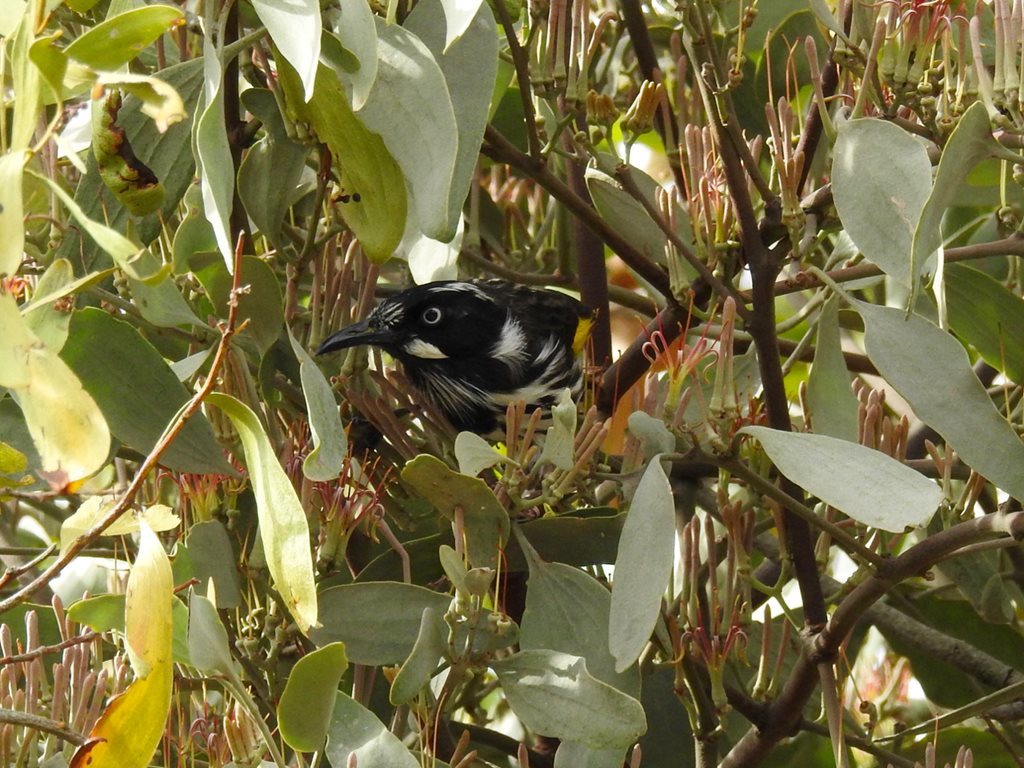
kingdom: Animalia
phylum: Chordata
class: Aves
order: Passeriformes
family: Meliphagidae
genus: Phylidonyris
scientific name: Phylidonyris novaehollandiae
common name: New holland honeyeater
